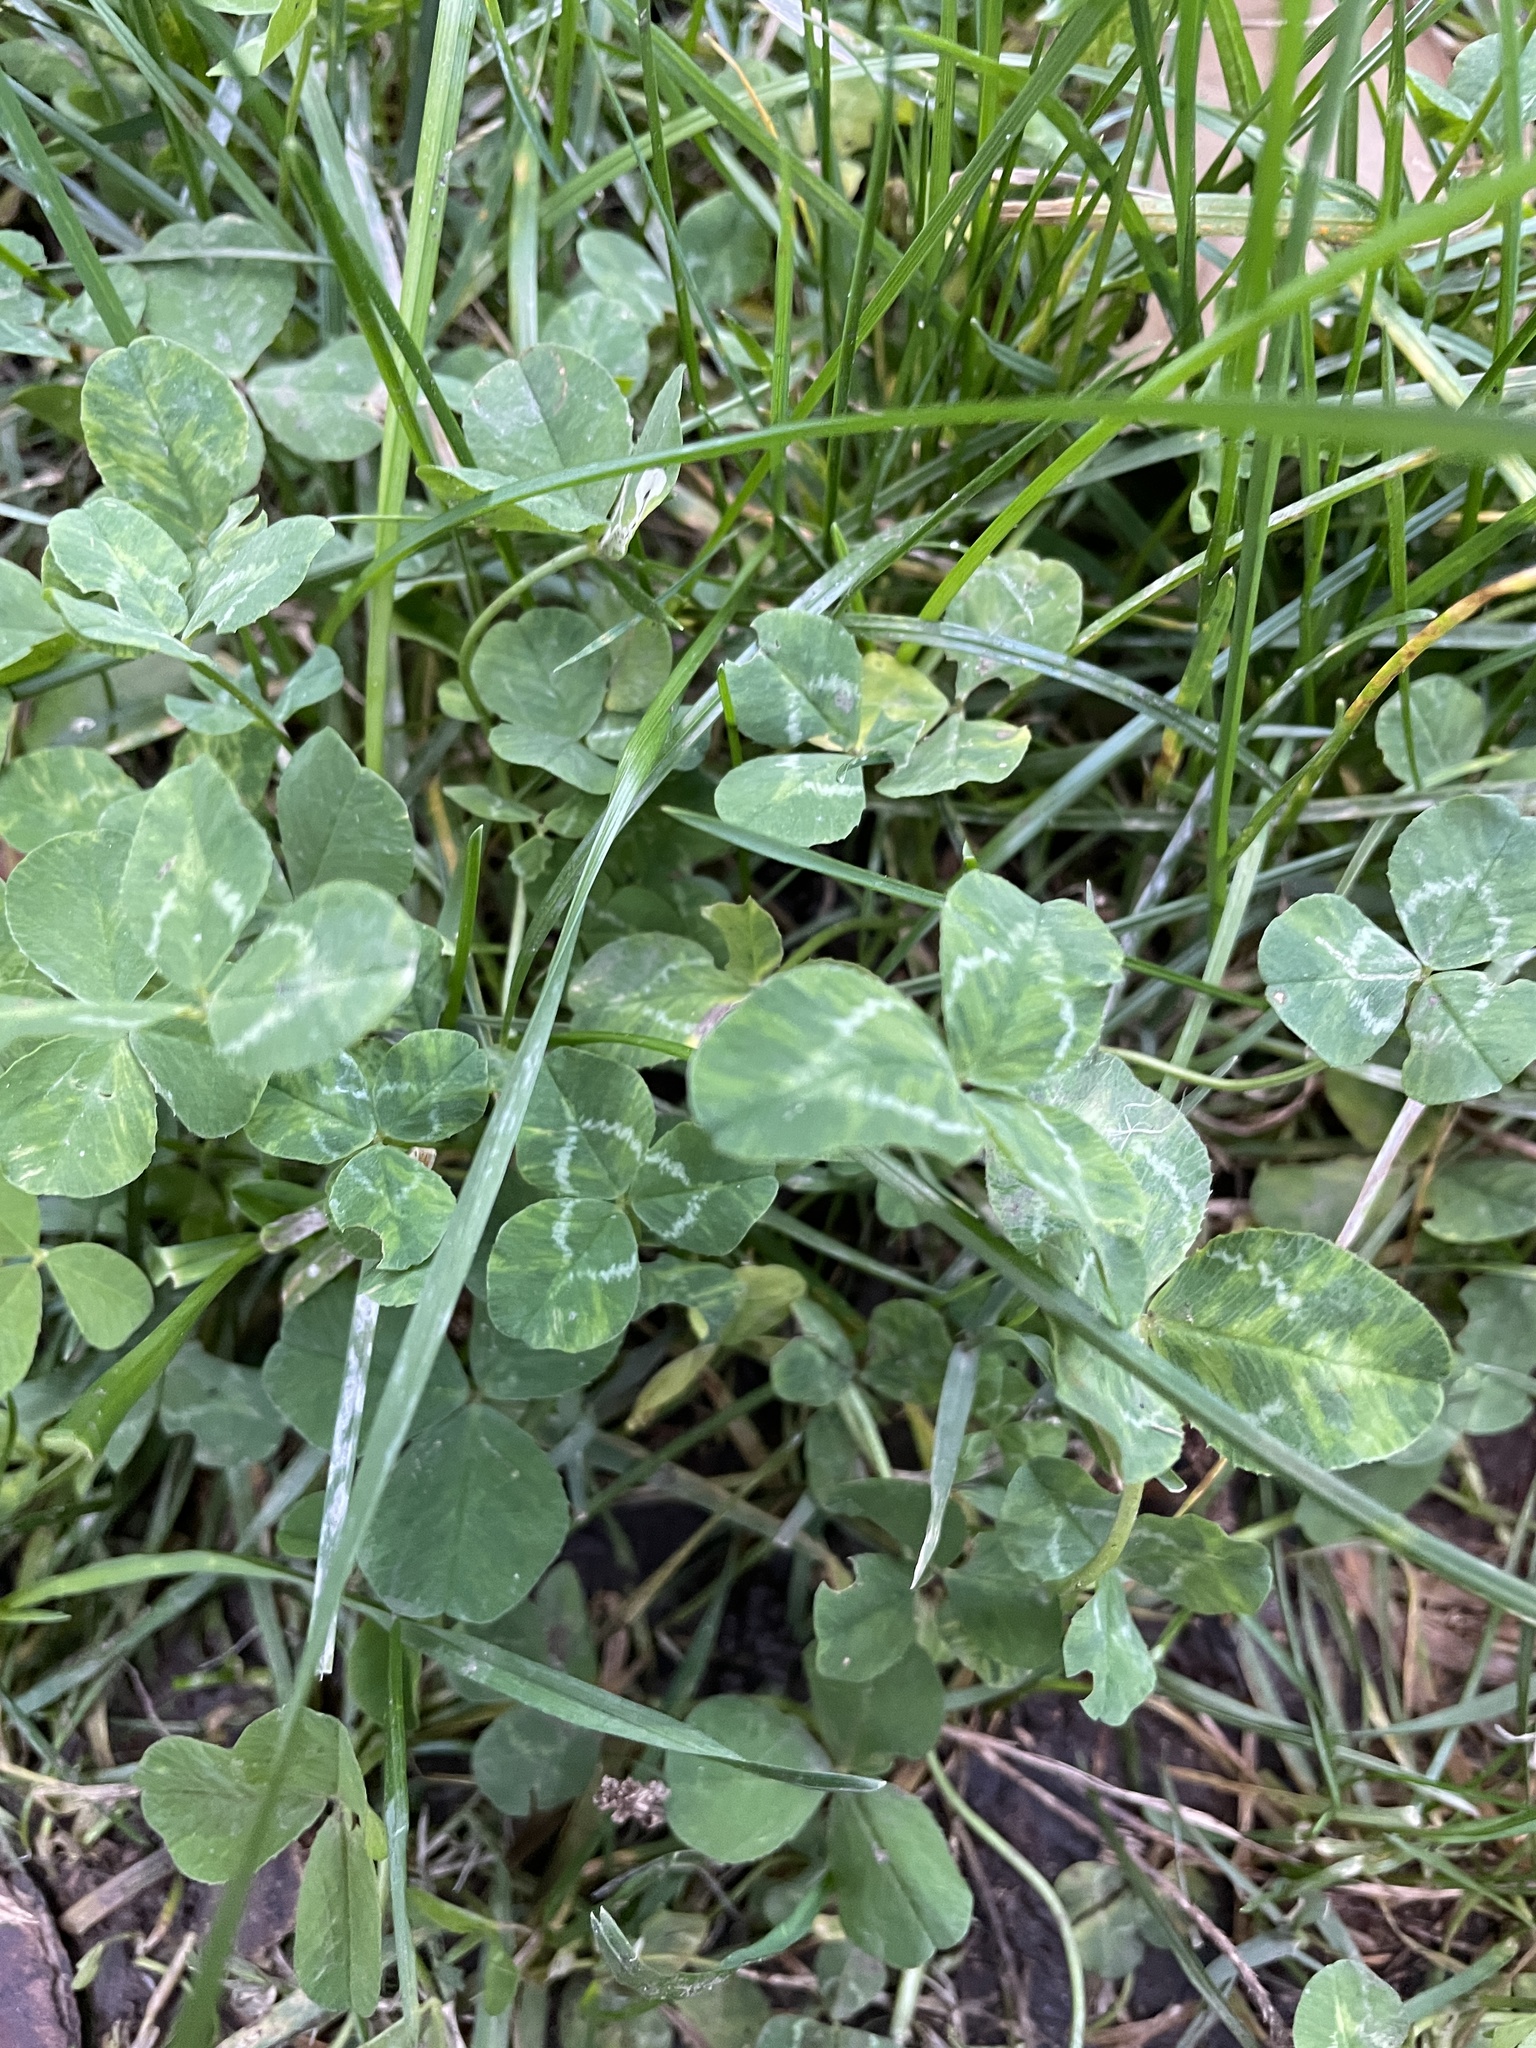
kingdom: Plantae
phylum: Tracheophyta
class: Magnoliopsida
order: Fabales
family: Fabaceae
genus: Trifolium
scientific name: Trifolium repens
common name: White clover
